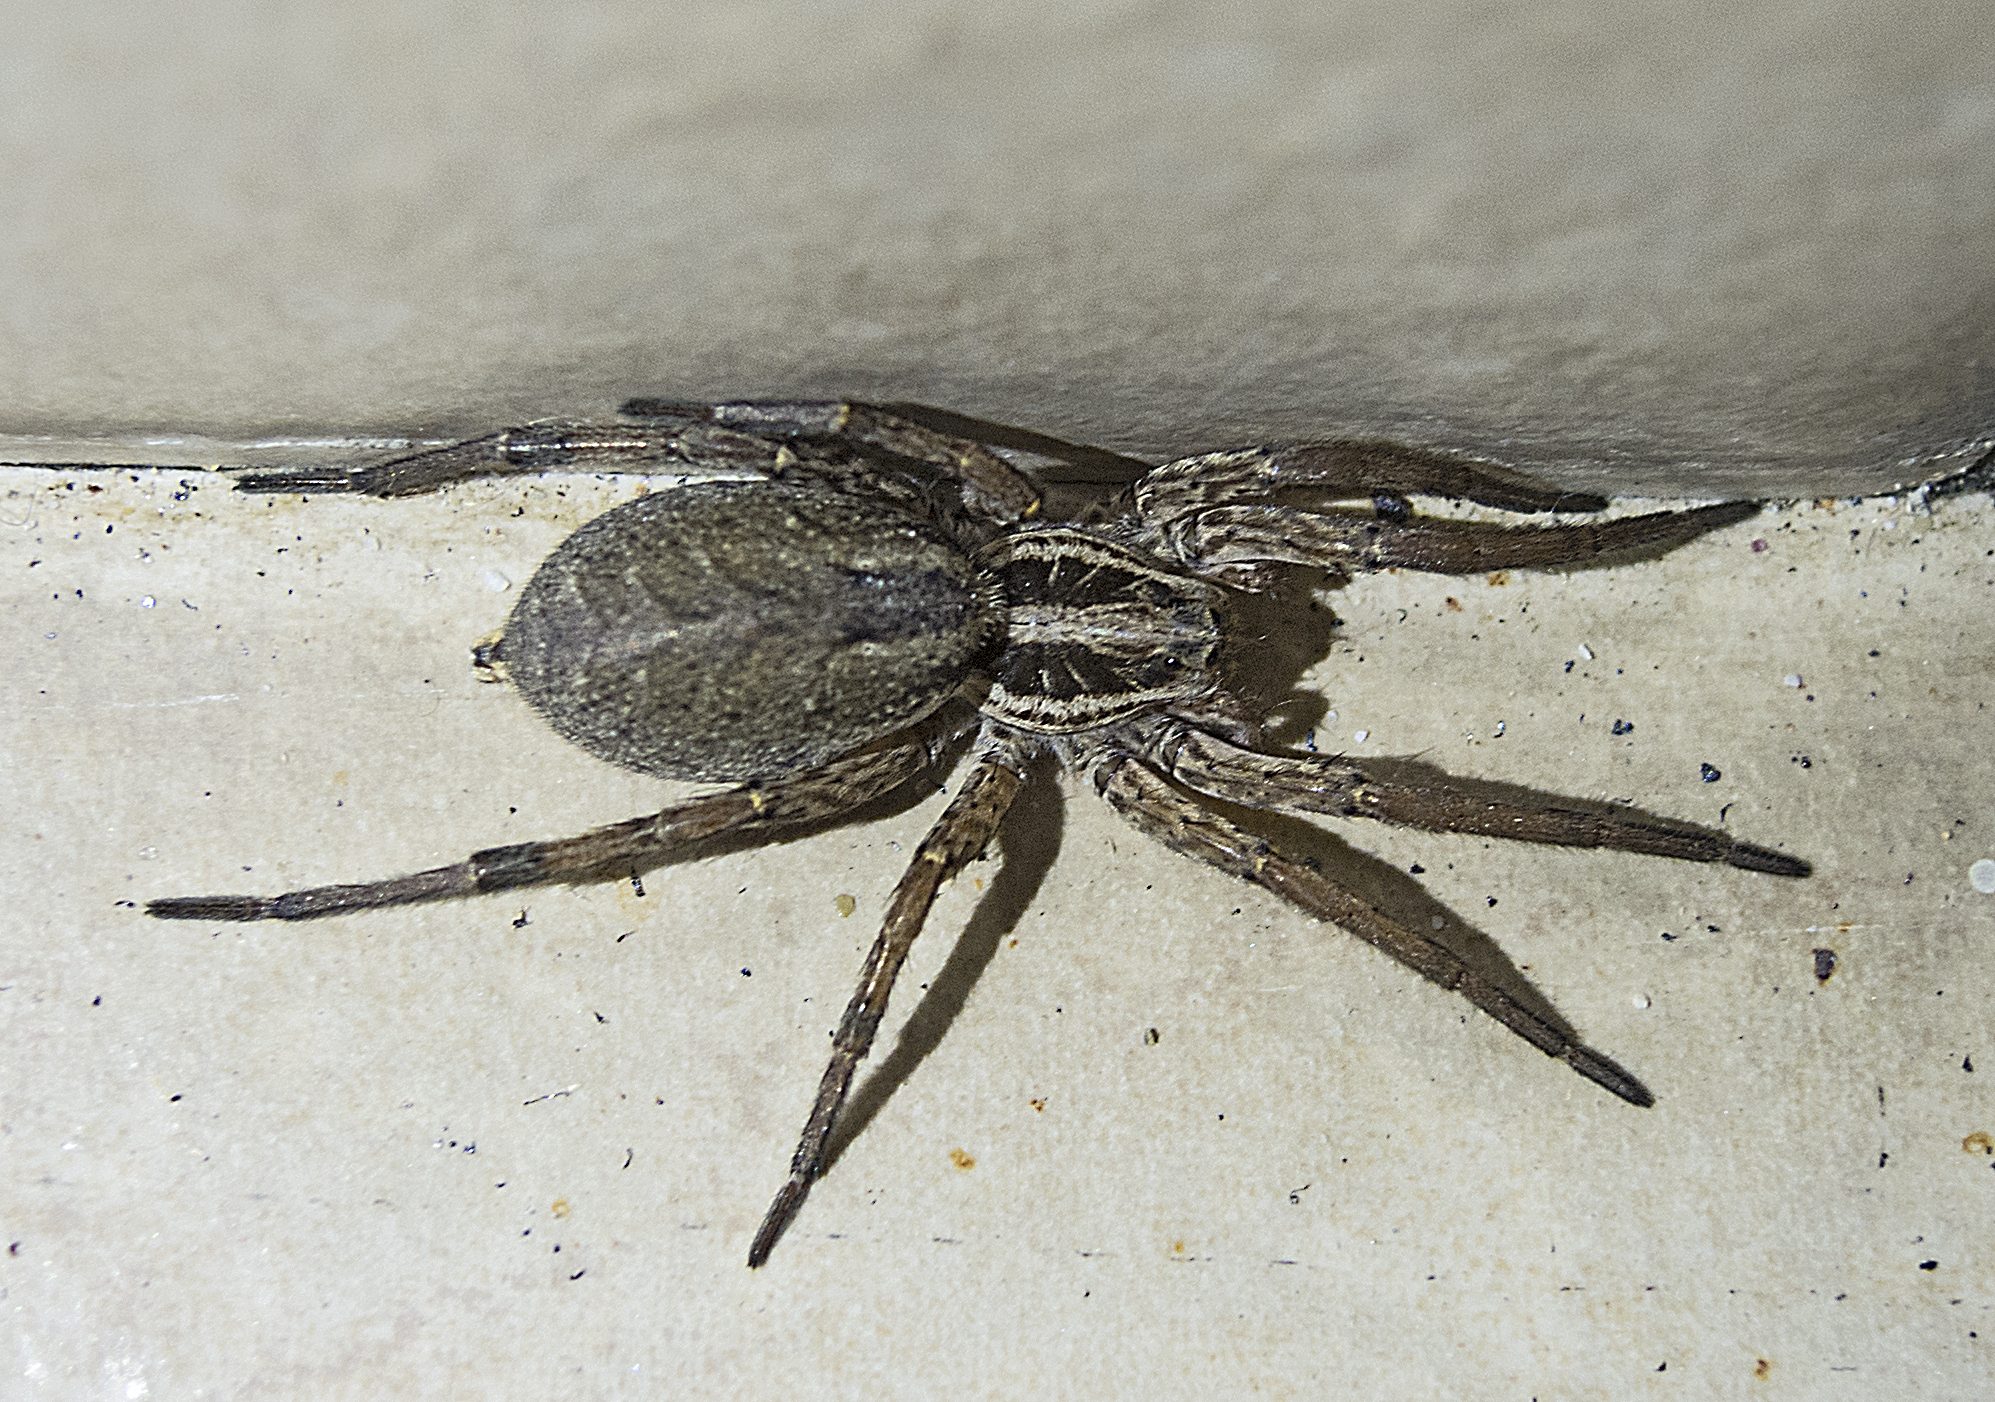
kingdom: Animalia
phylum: Arthropoda
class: Arachnida
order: Araneae
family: Lycosidae
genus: Hogna
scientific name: Hogna radiata
